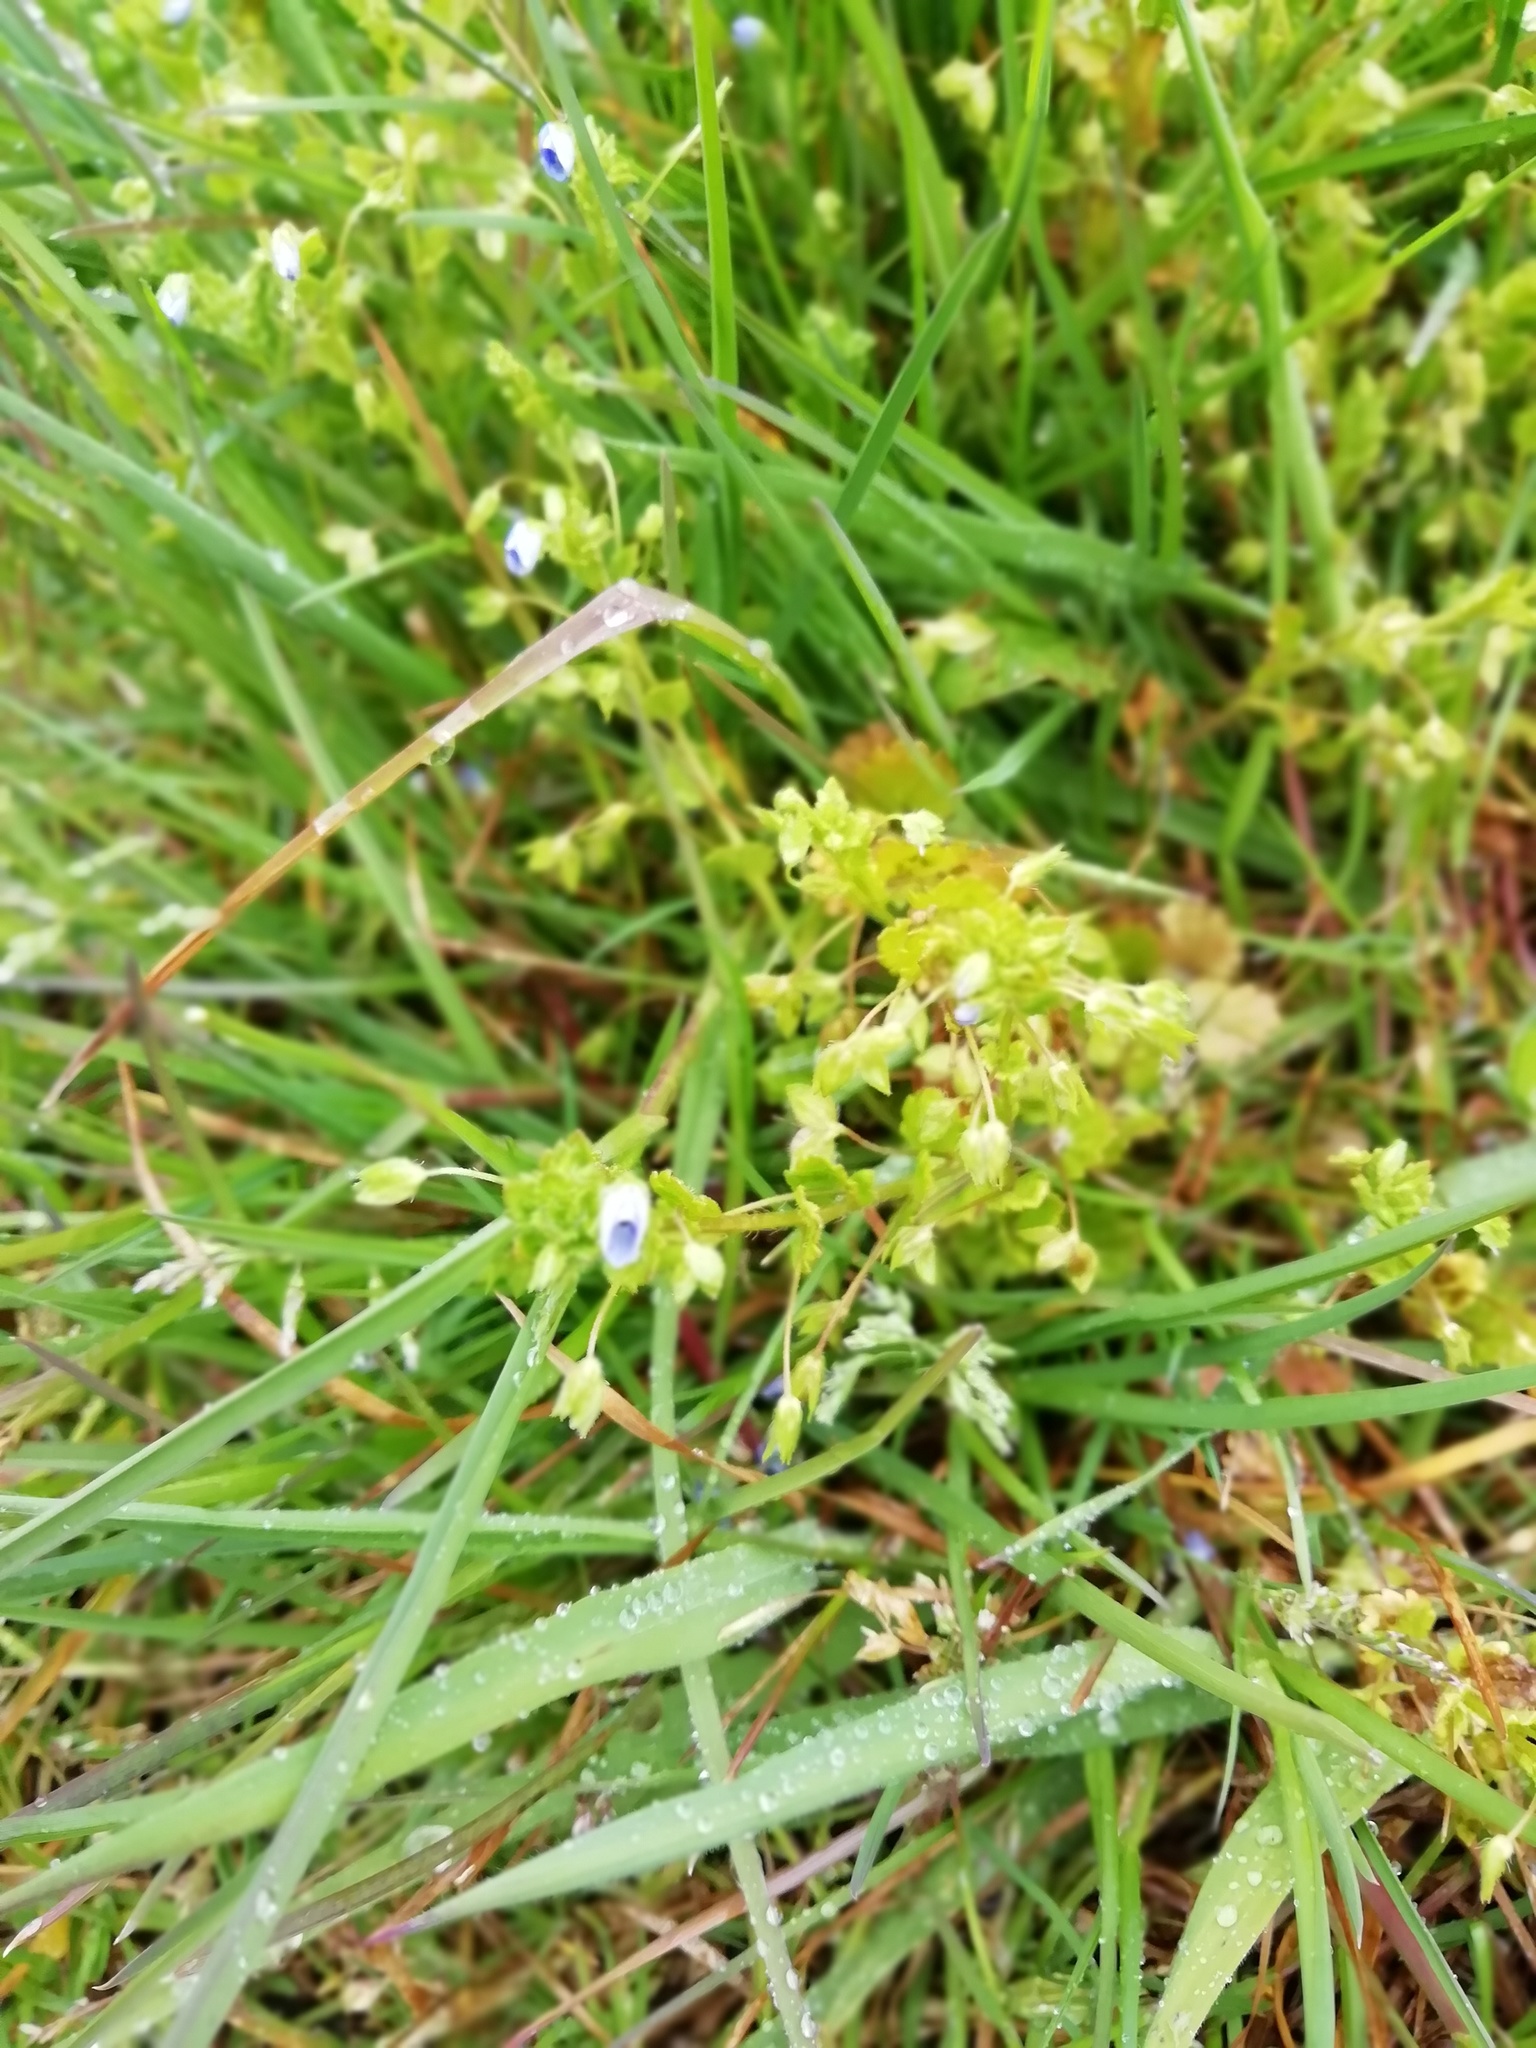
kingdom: Plantae
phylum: Tracheophyta
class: Magnoliopsida
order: Lamiales
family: Plantaginaceae
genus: Veronica
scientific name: Veronica persica
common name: Common field-speedwell
